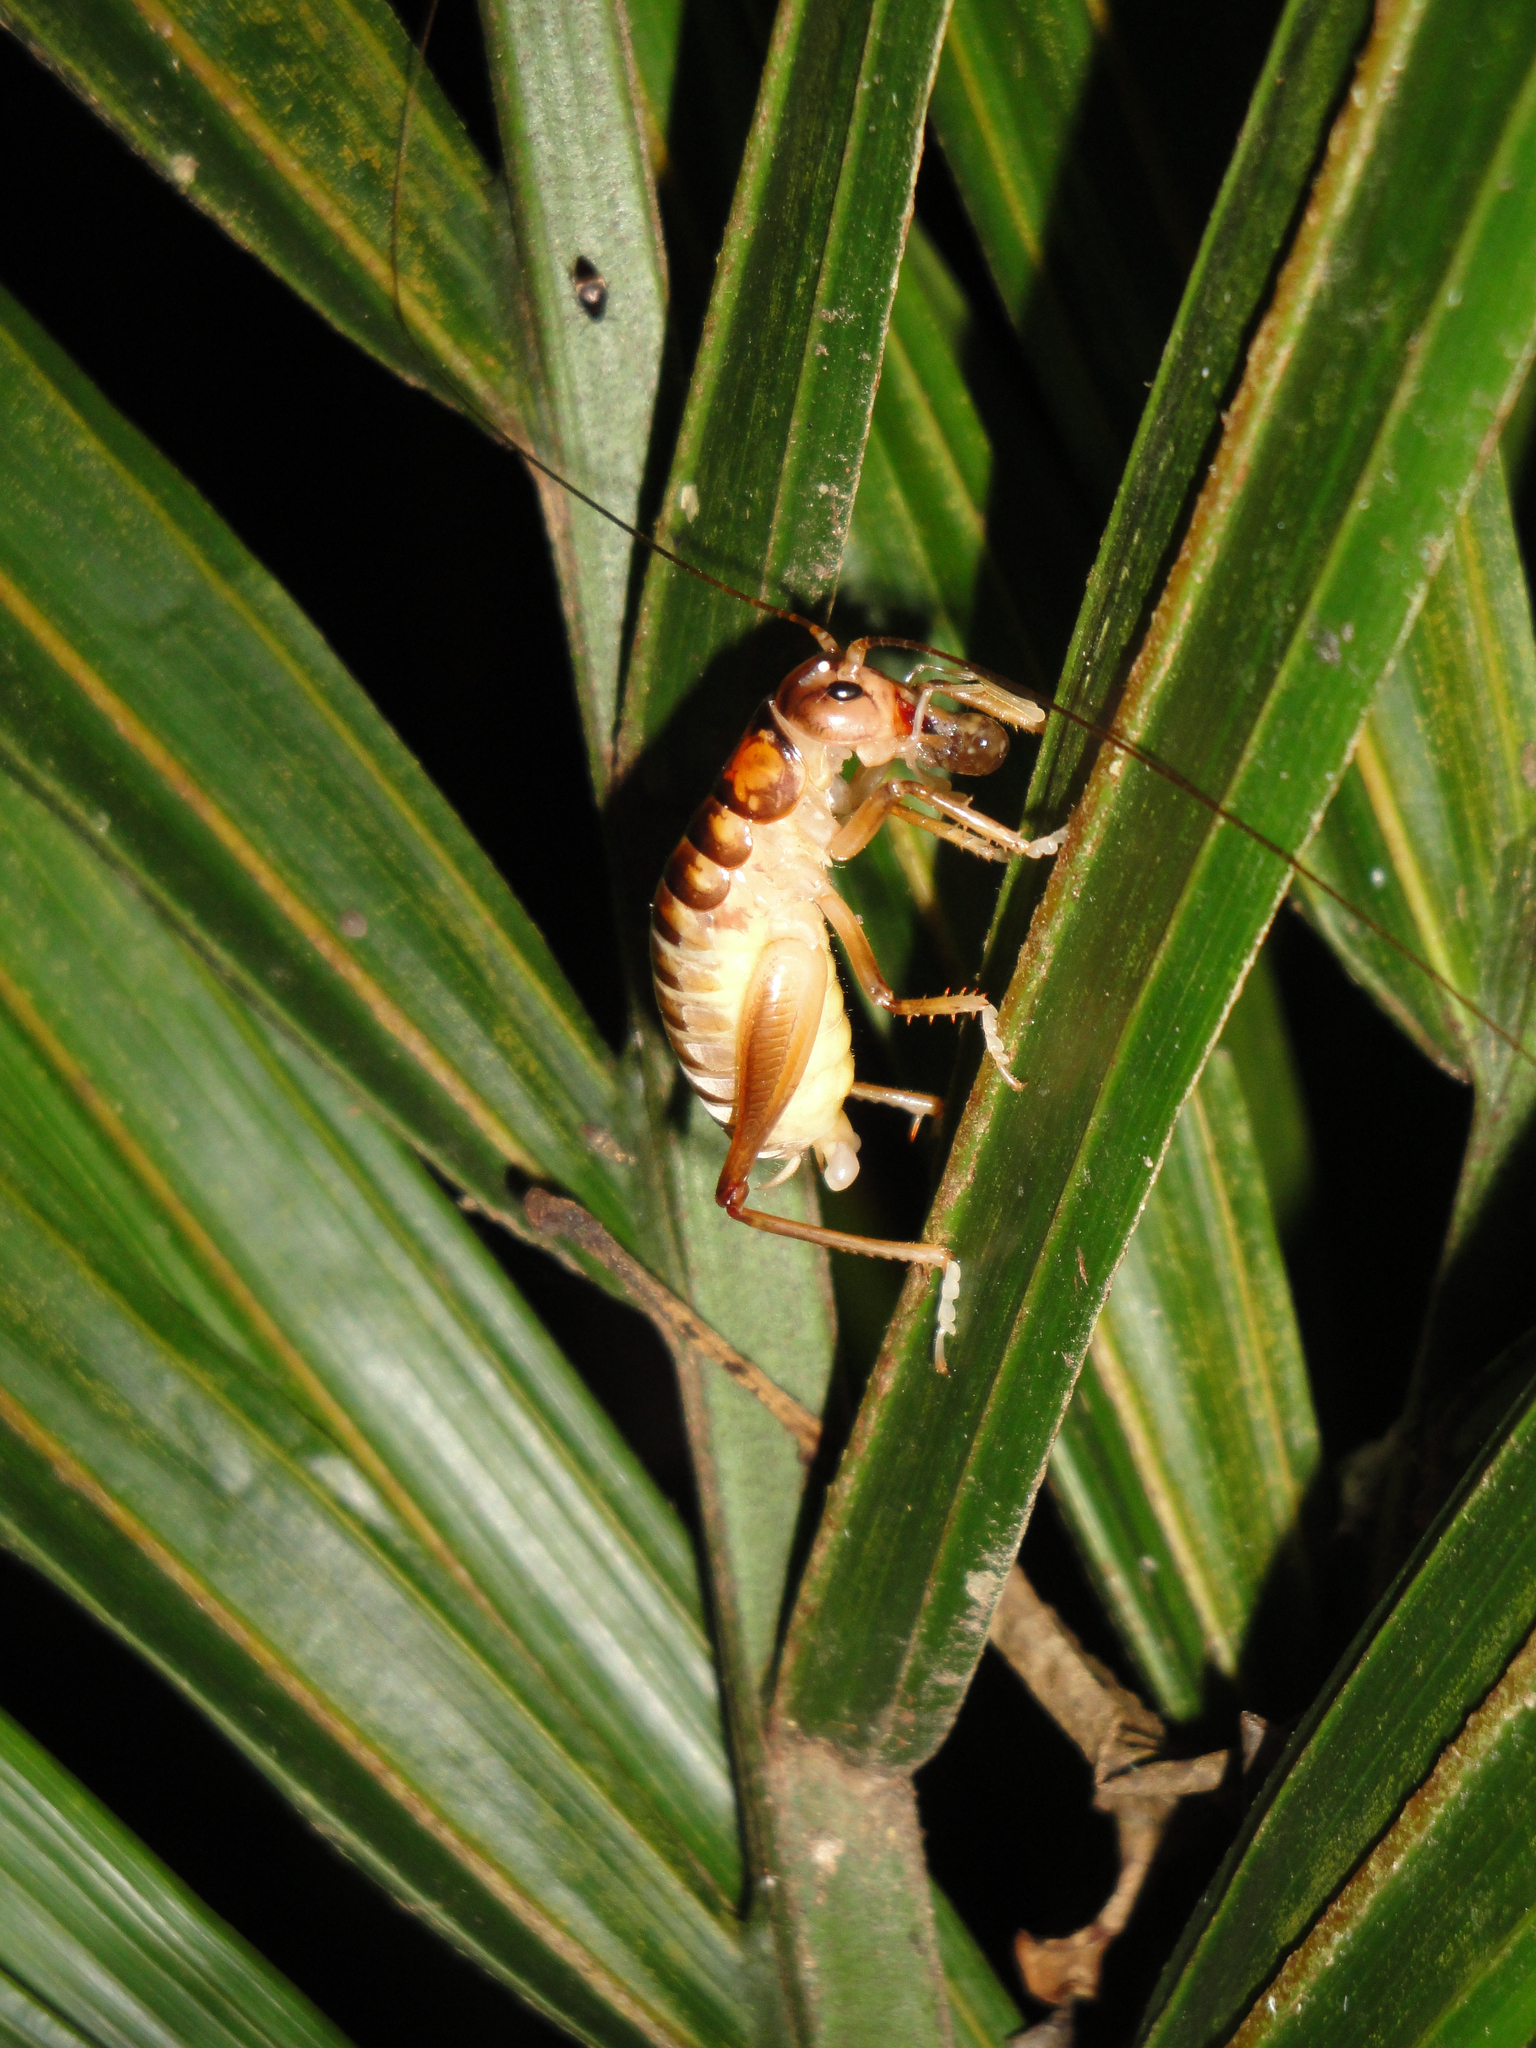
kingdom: Animalia
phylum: Arthropoda
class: Insecta
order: Orthoptera
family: Anostostomatidae
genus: Hemiandrus
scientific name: Hemiandrus merope
